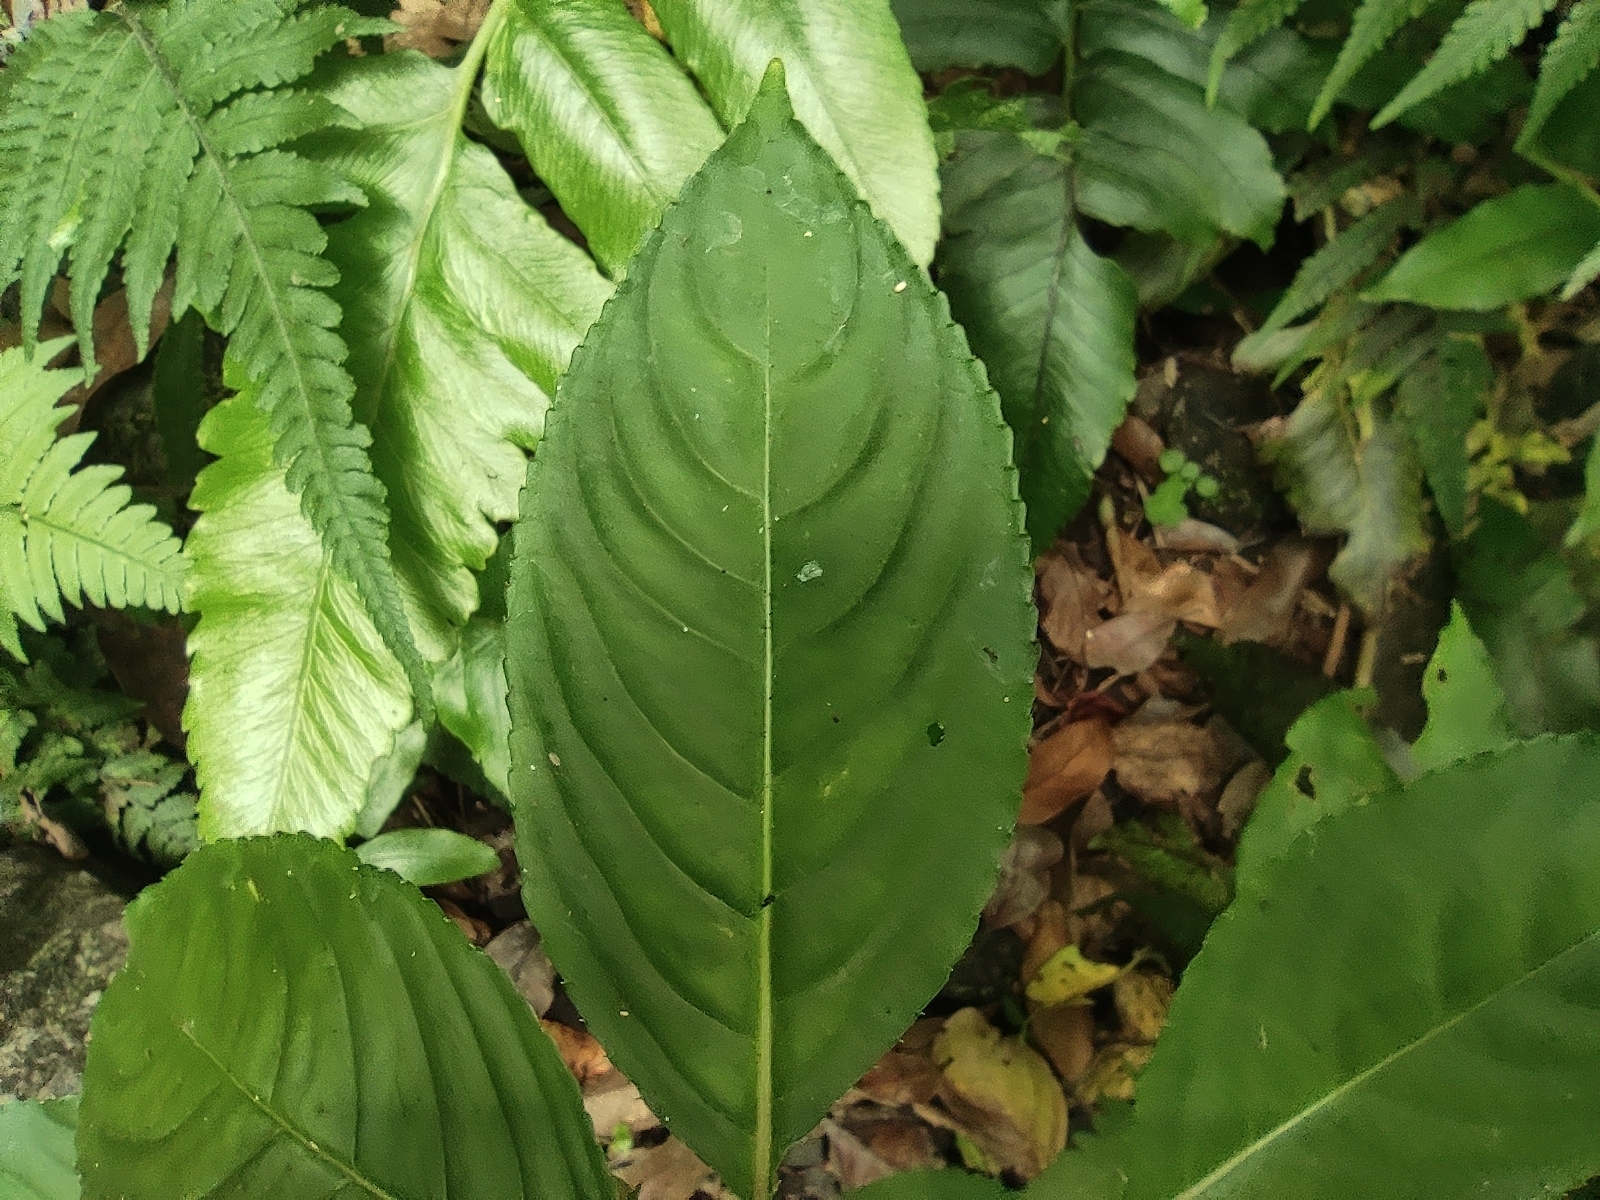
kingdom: Plantae
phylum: Tracheophyta
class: Magnoliopsida
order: Ericales
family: Balsaminaceae
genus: Impatiens
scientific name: Impatiens flaccida
